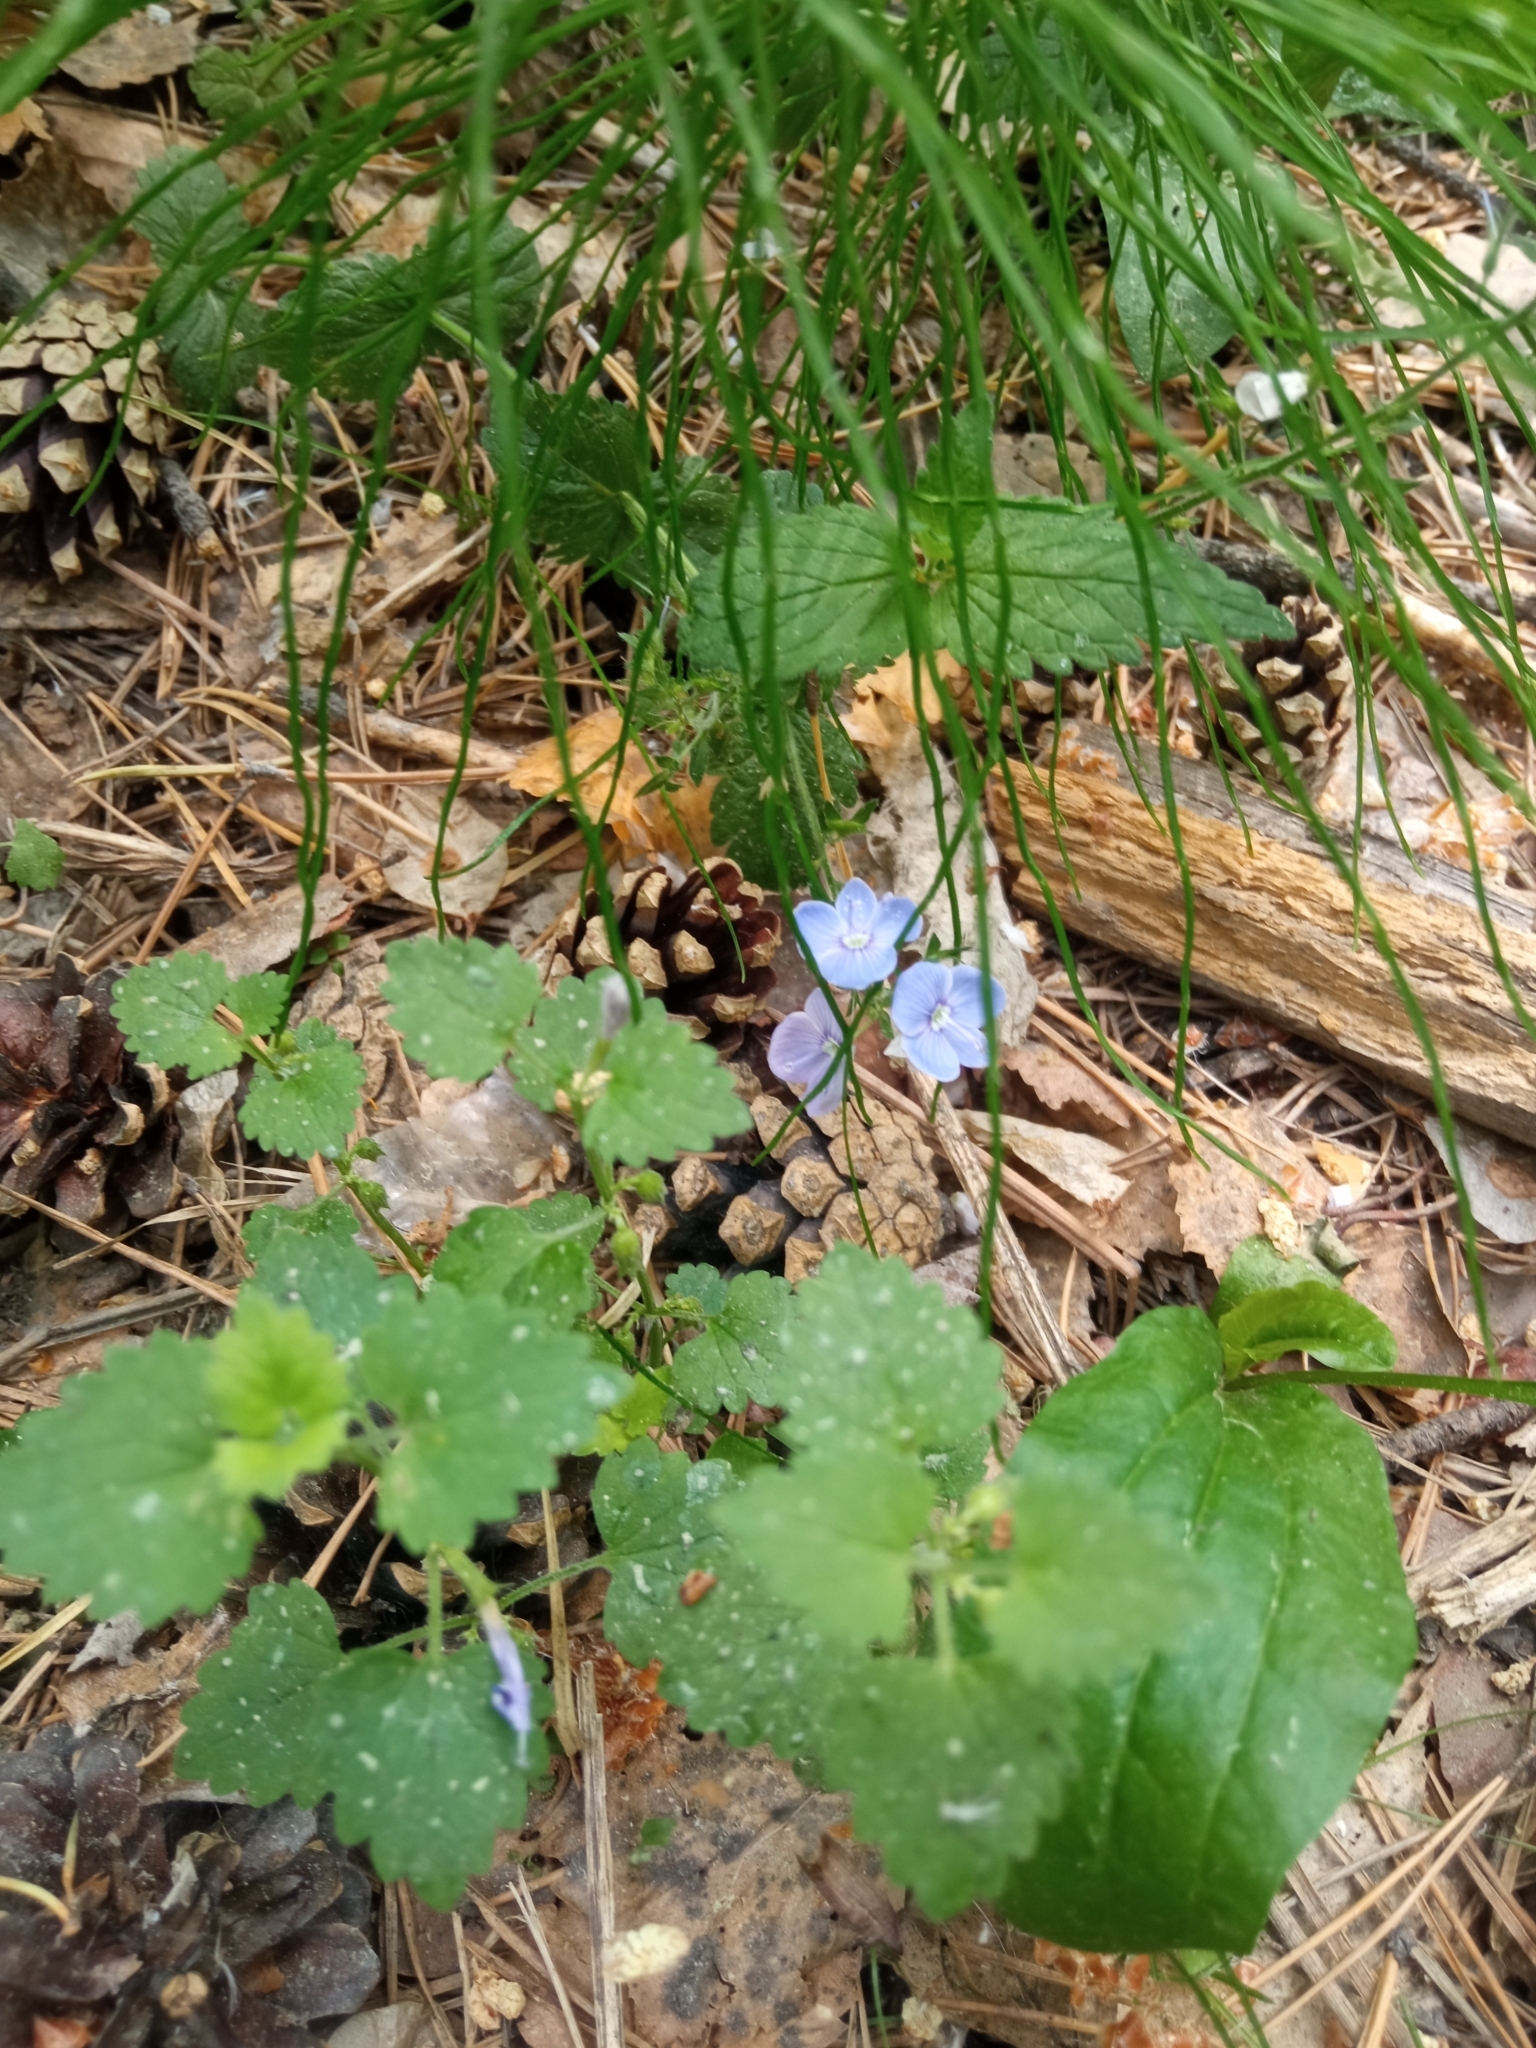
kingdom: Plantae
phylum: Tracheophyta
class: Magnoliopsida
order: Lamiales
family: Plantaginaceae
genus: Veronica
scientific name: Veronica chamaedrys
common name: Germander speedwell
